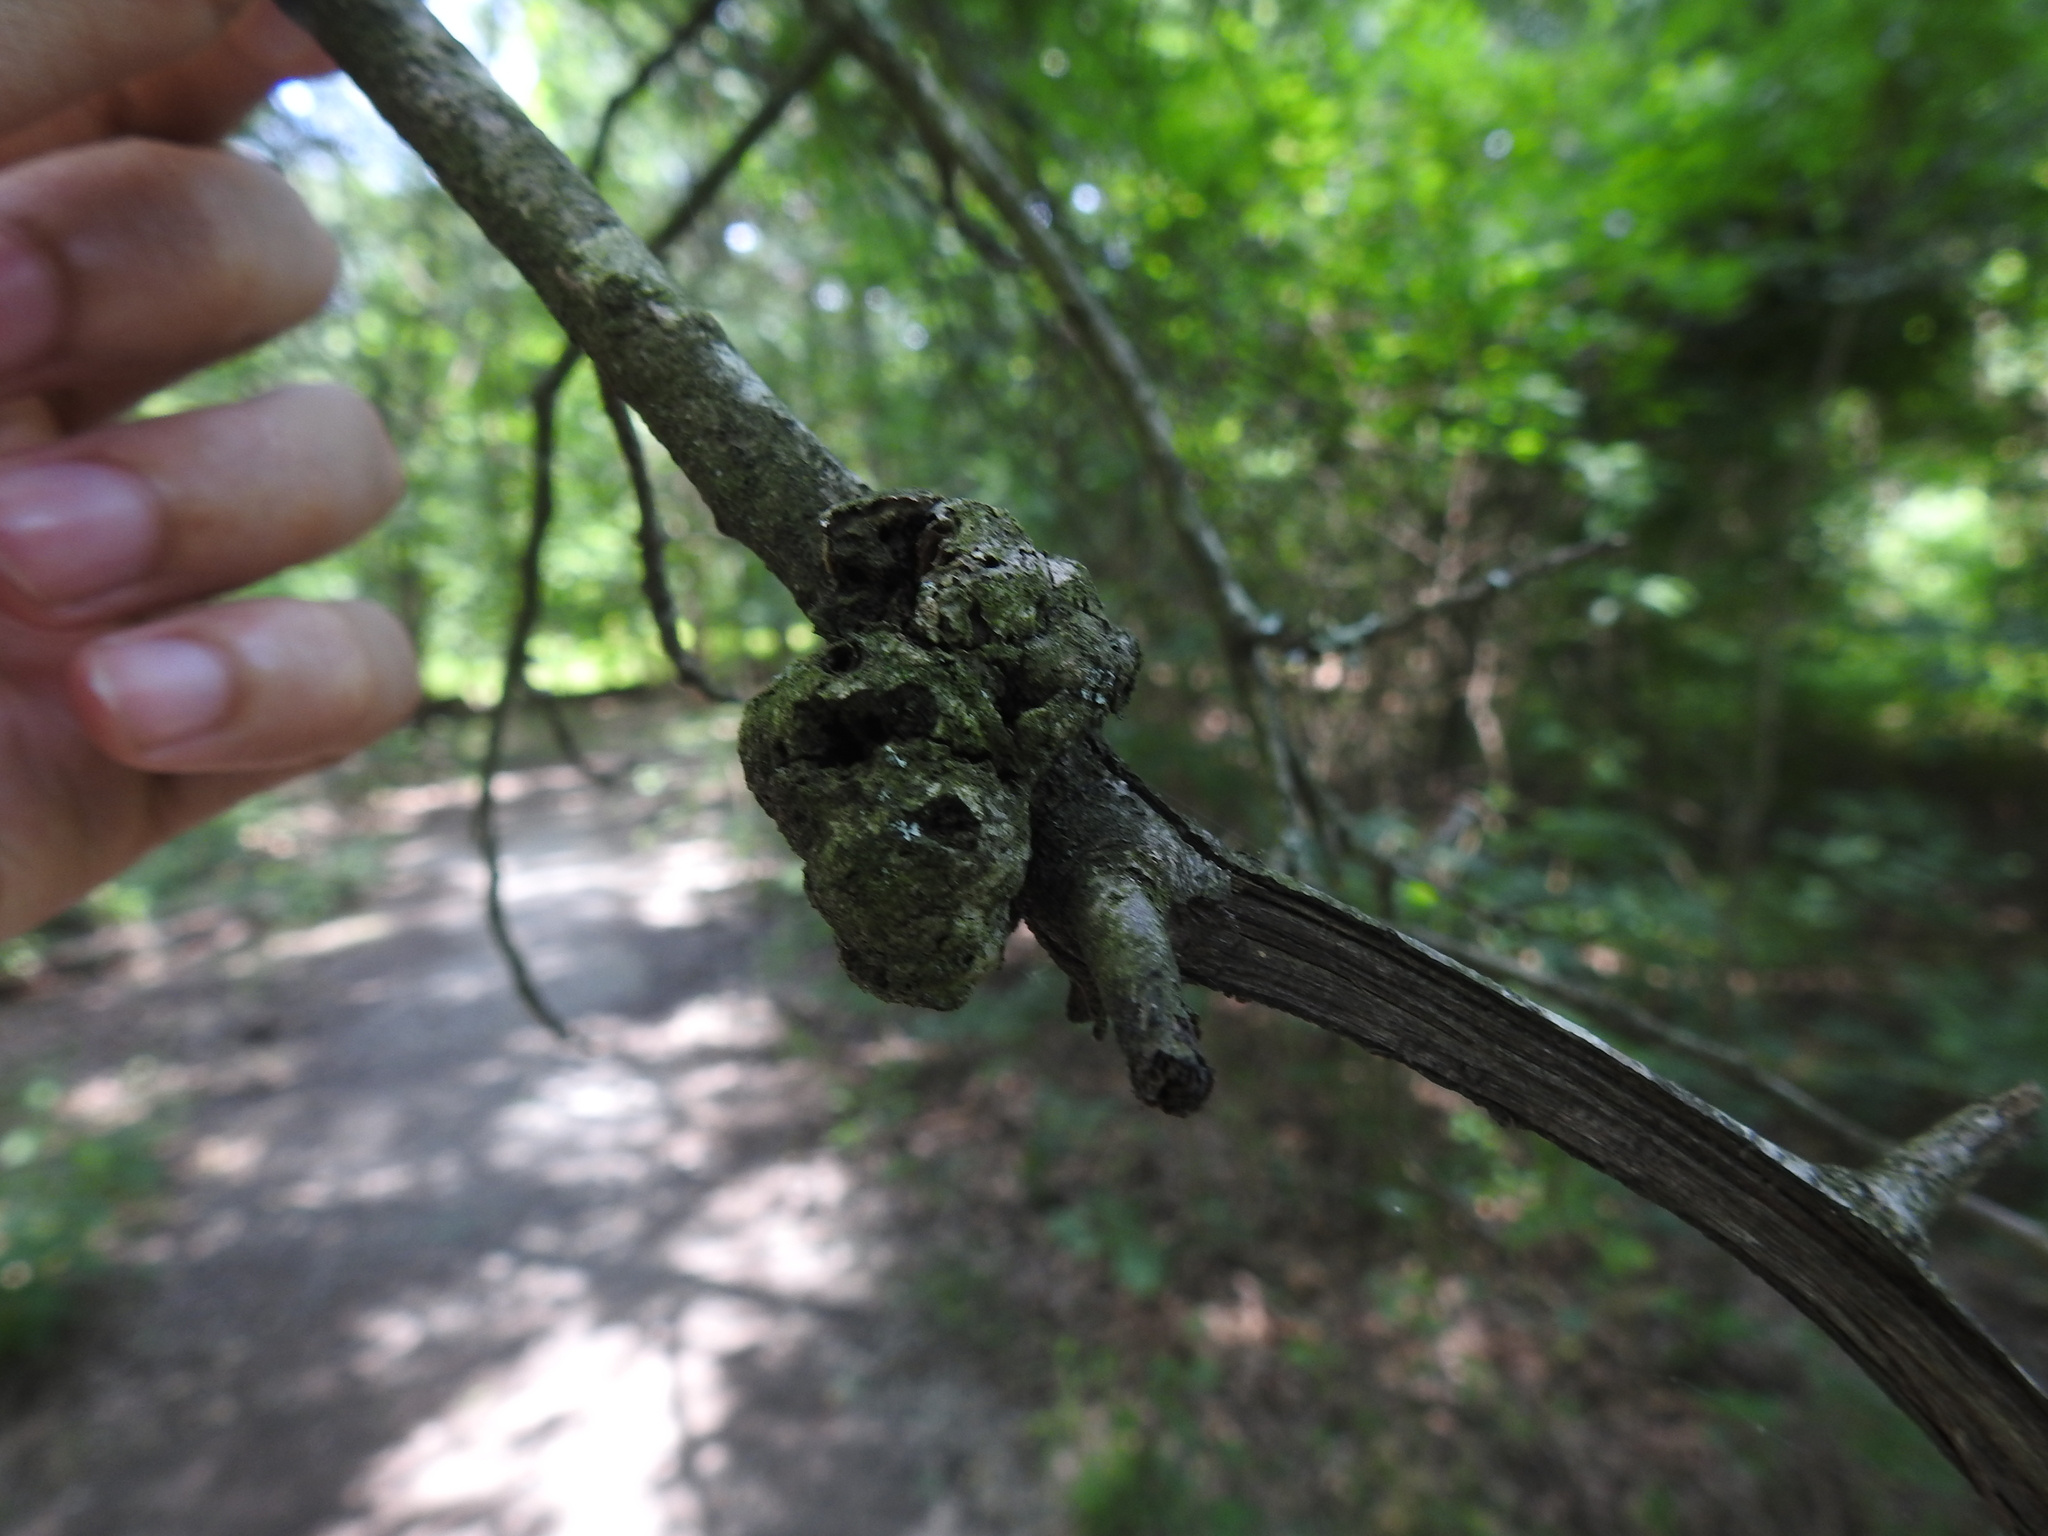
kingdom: Bacteria
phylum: Proteobacteria
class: Alphaproteobacteria
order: Rhizobiales
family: Rhizobiaceae
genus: Rhizobium
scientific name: Rhizobium Agrobacterium radiobacter
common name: Bacterial crown gall
